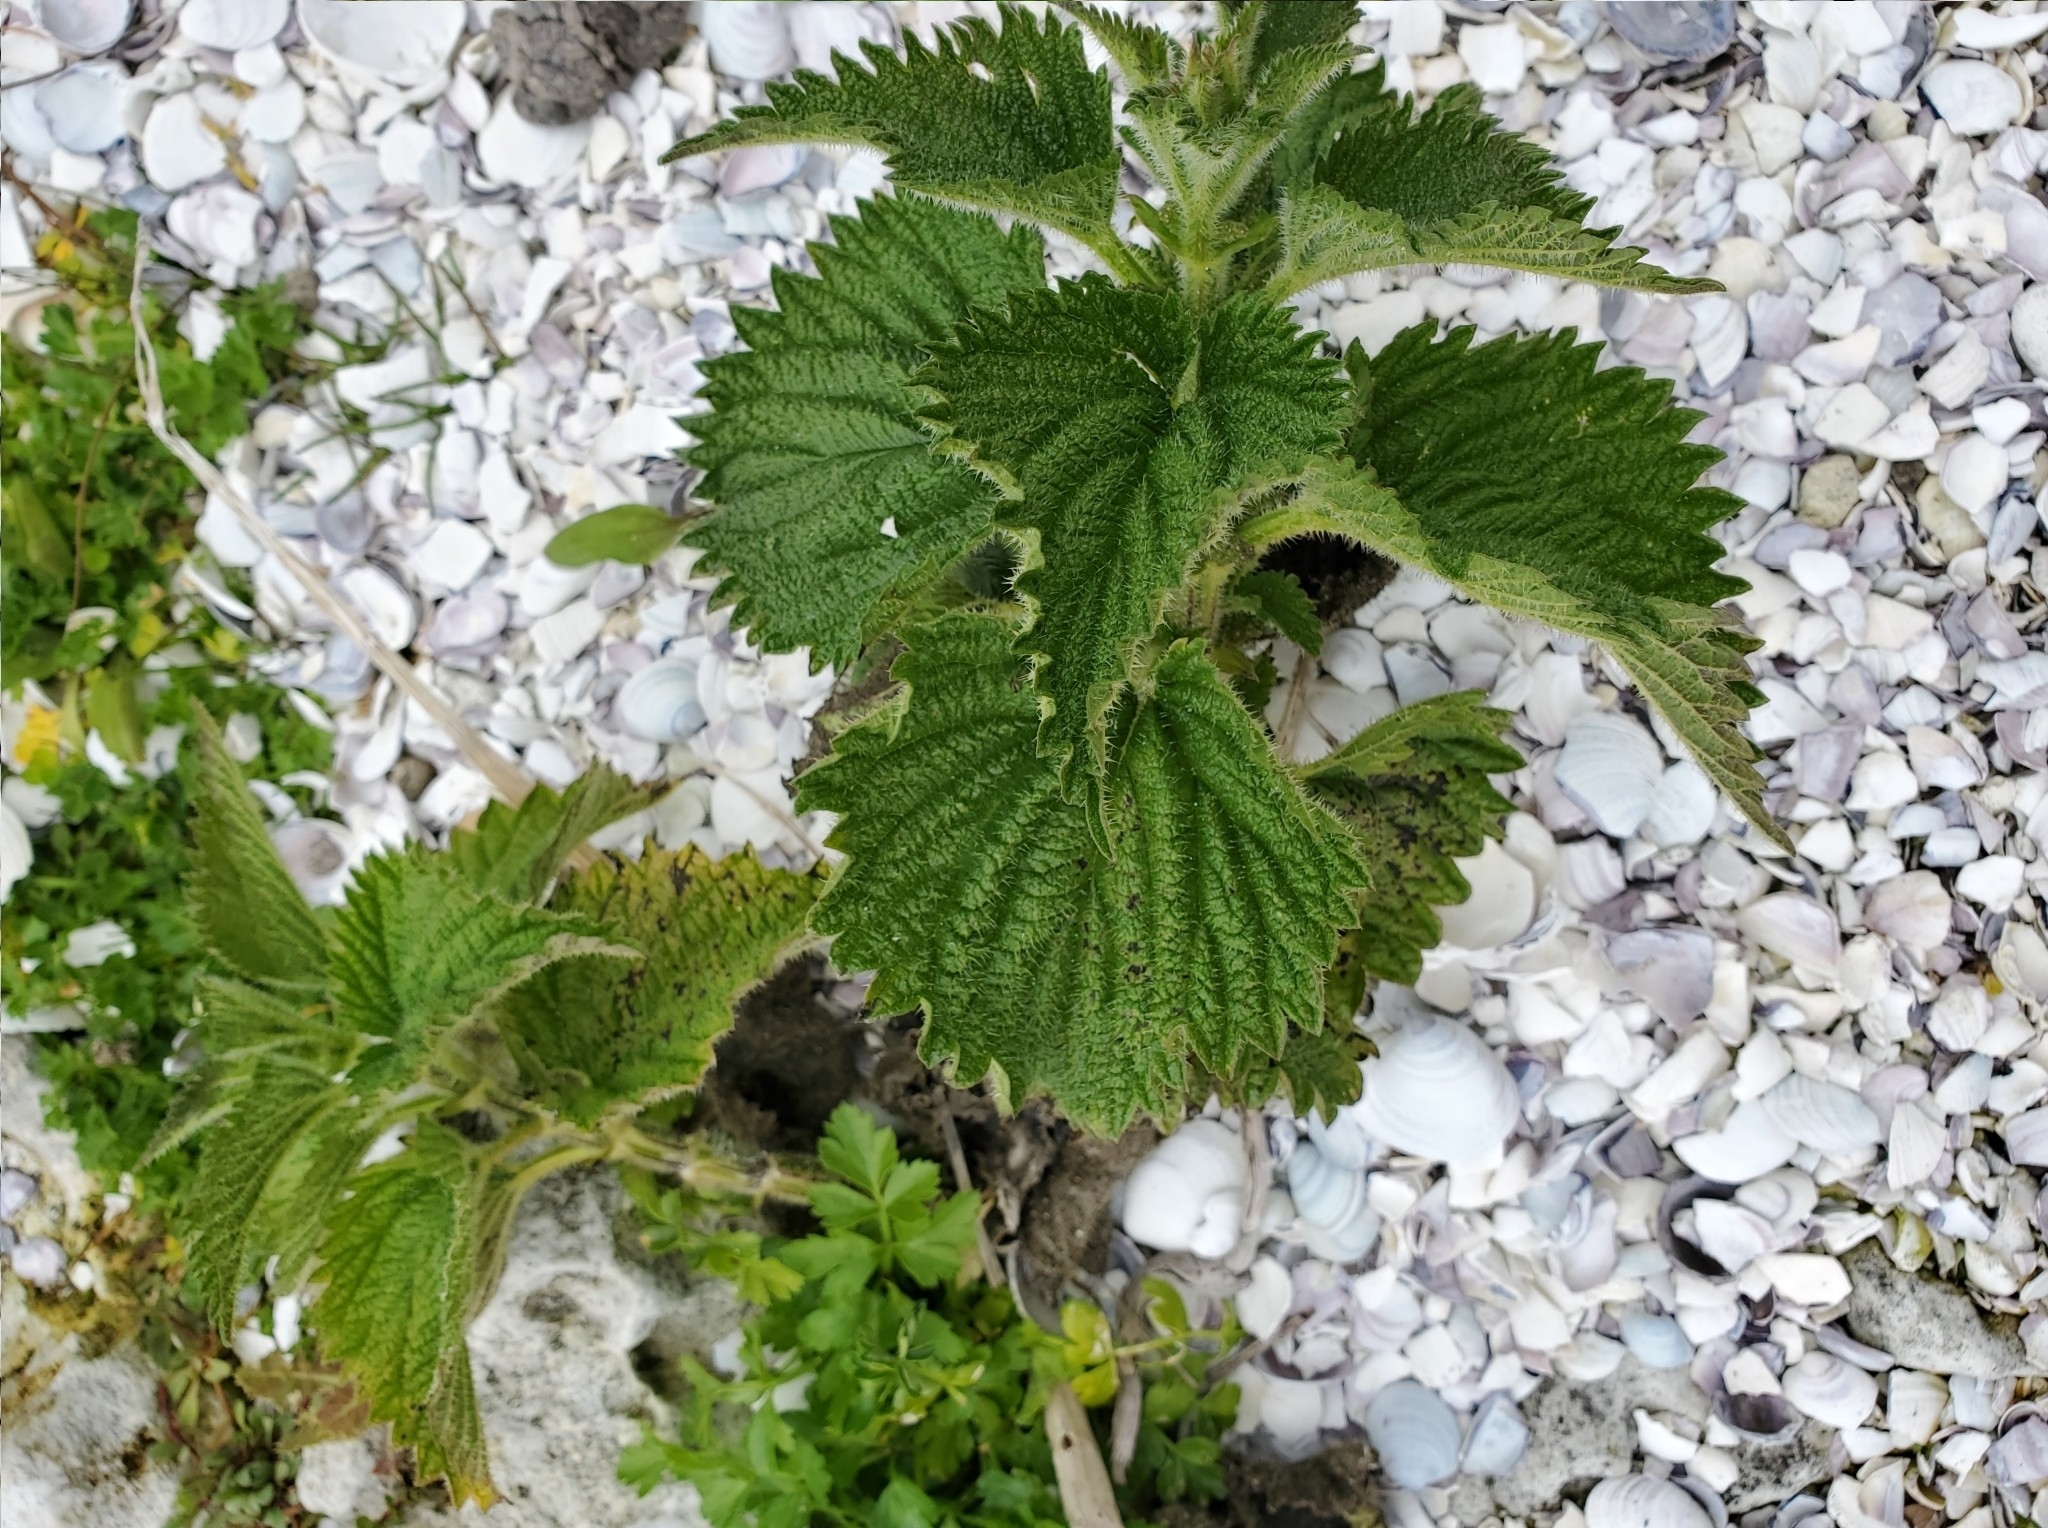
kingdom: Plantae
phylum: Tracheophyta
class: Magnoliopsida
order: Rosales
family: Urticaceae
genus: Urtica
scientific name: Urtica australis
